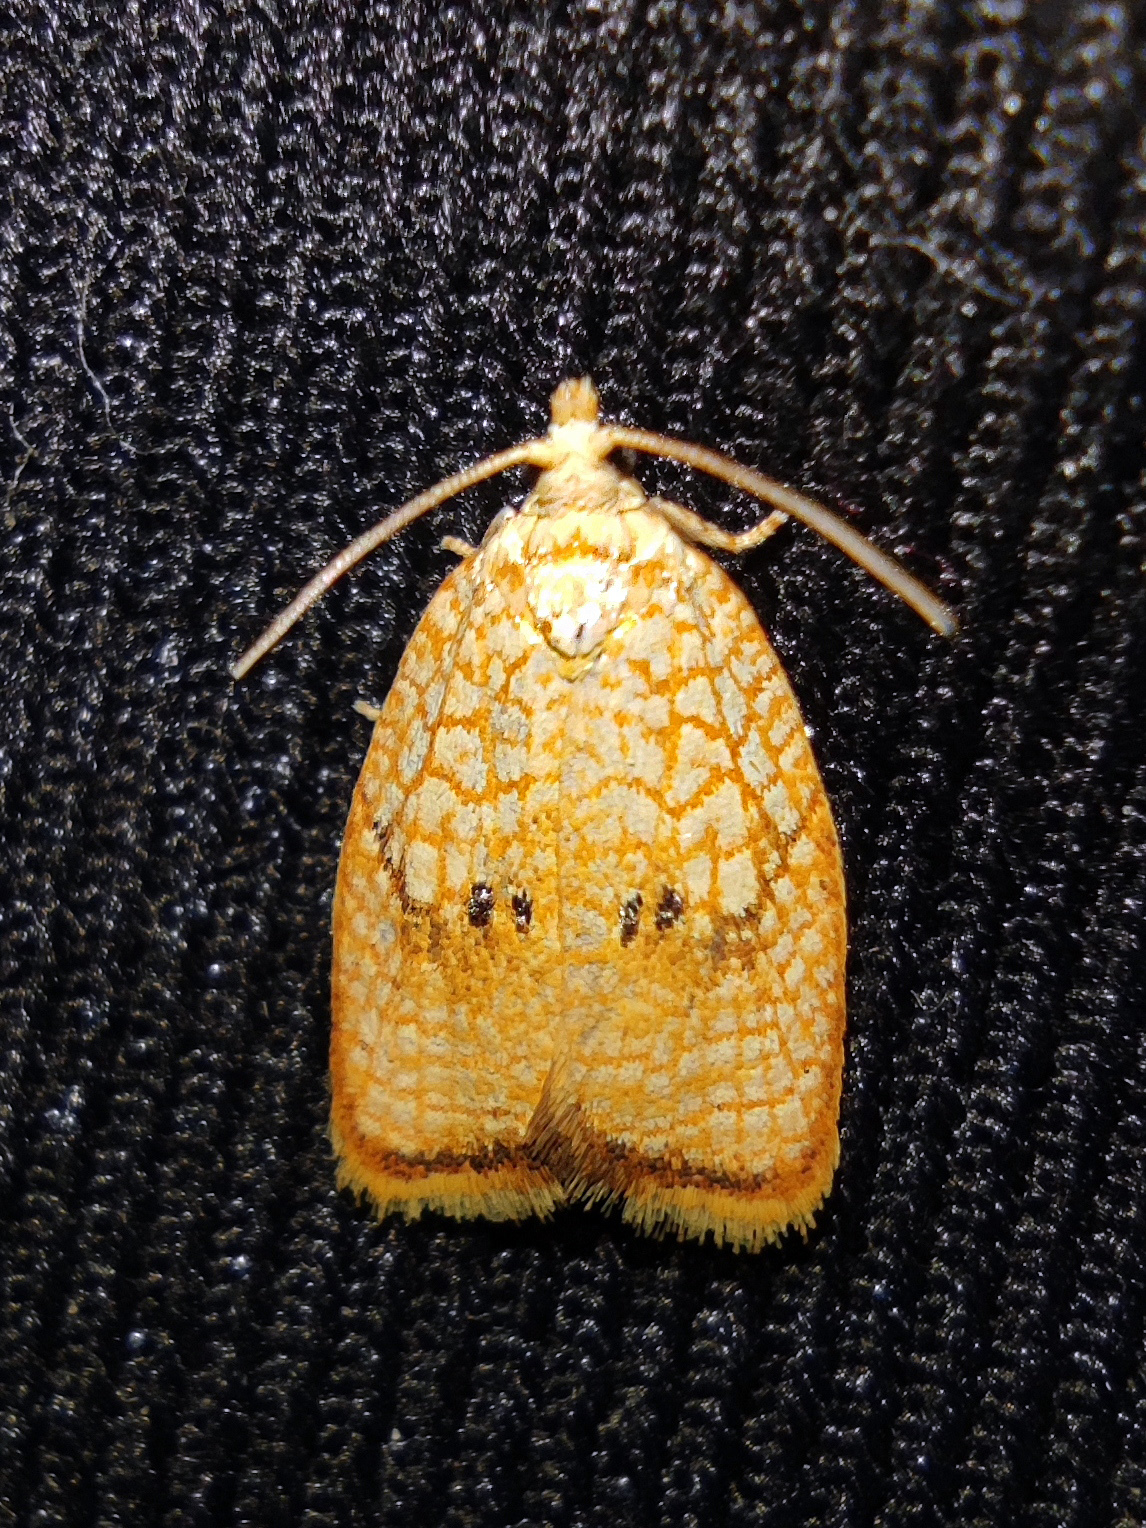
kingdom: Animalia
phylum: Arthropoda
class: Insecta
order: Lepidoptera
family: Tortricidae
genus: Acleris
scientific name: Acleris forsskaleana
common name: Maple button
